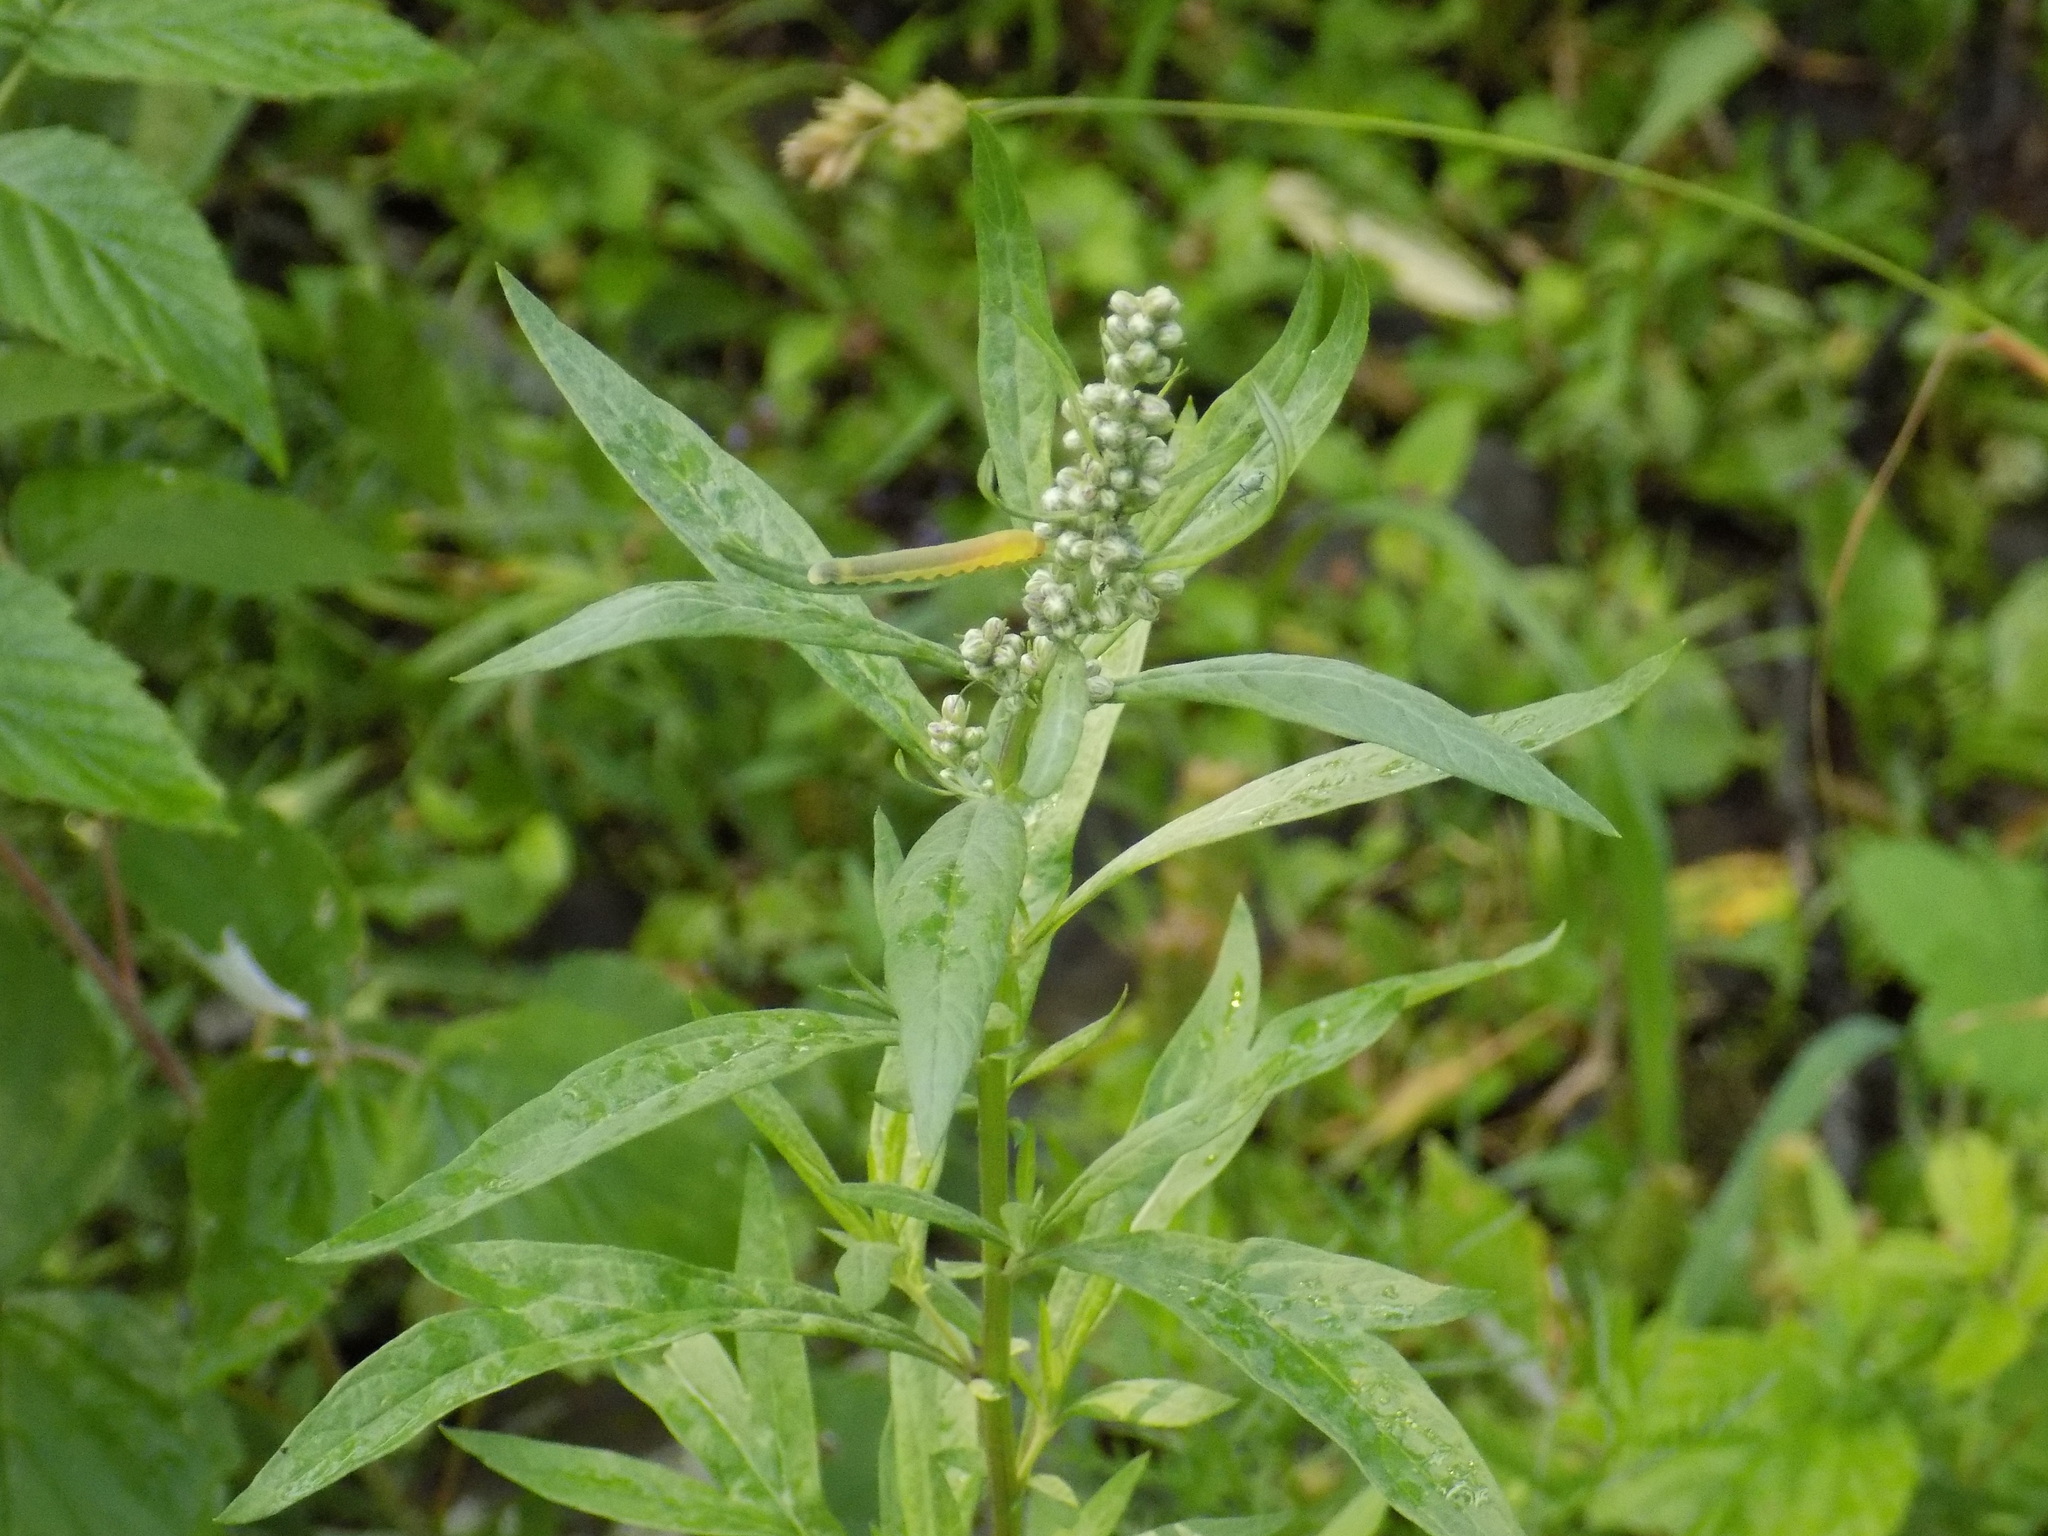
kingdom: Plantae
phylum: Tracheophyta
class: Magnoliopsida
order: Asterales
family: Asteraceae
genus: Artemisia
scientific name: Artemisia vulgaris
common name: Mugwort
